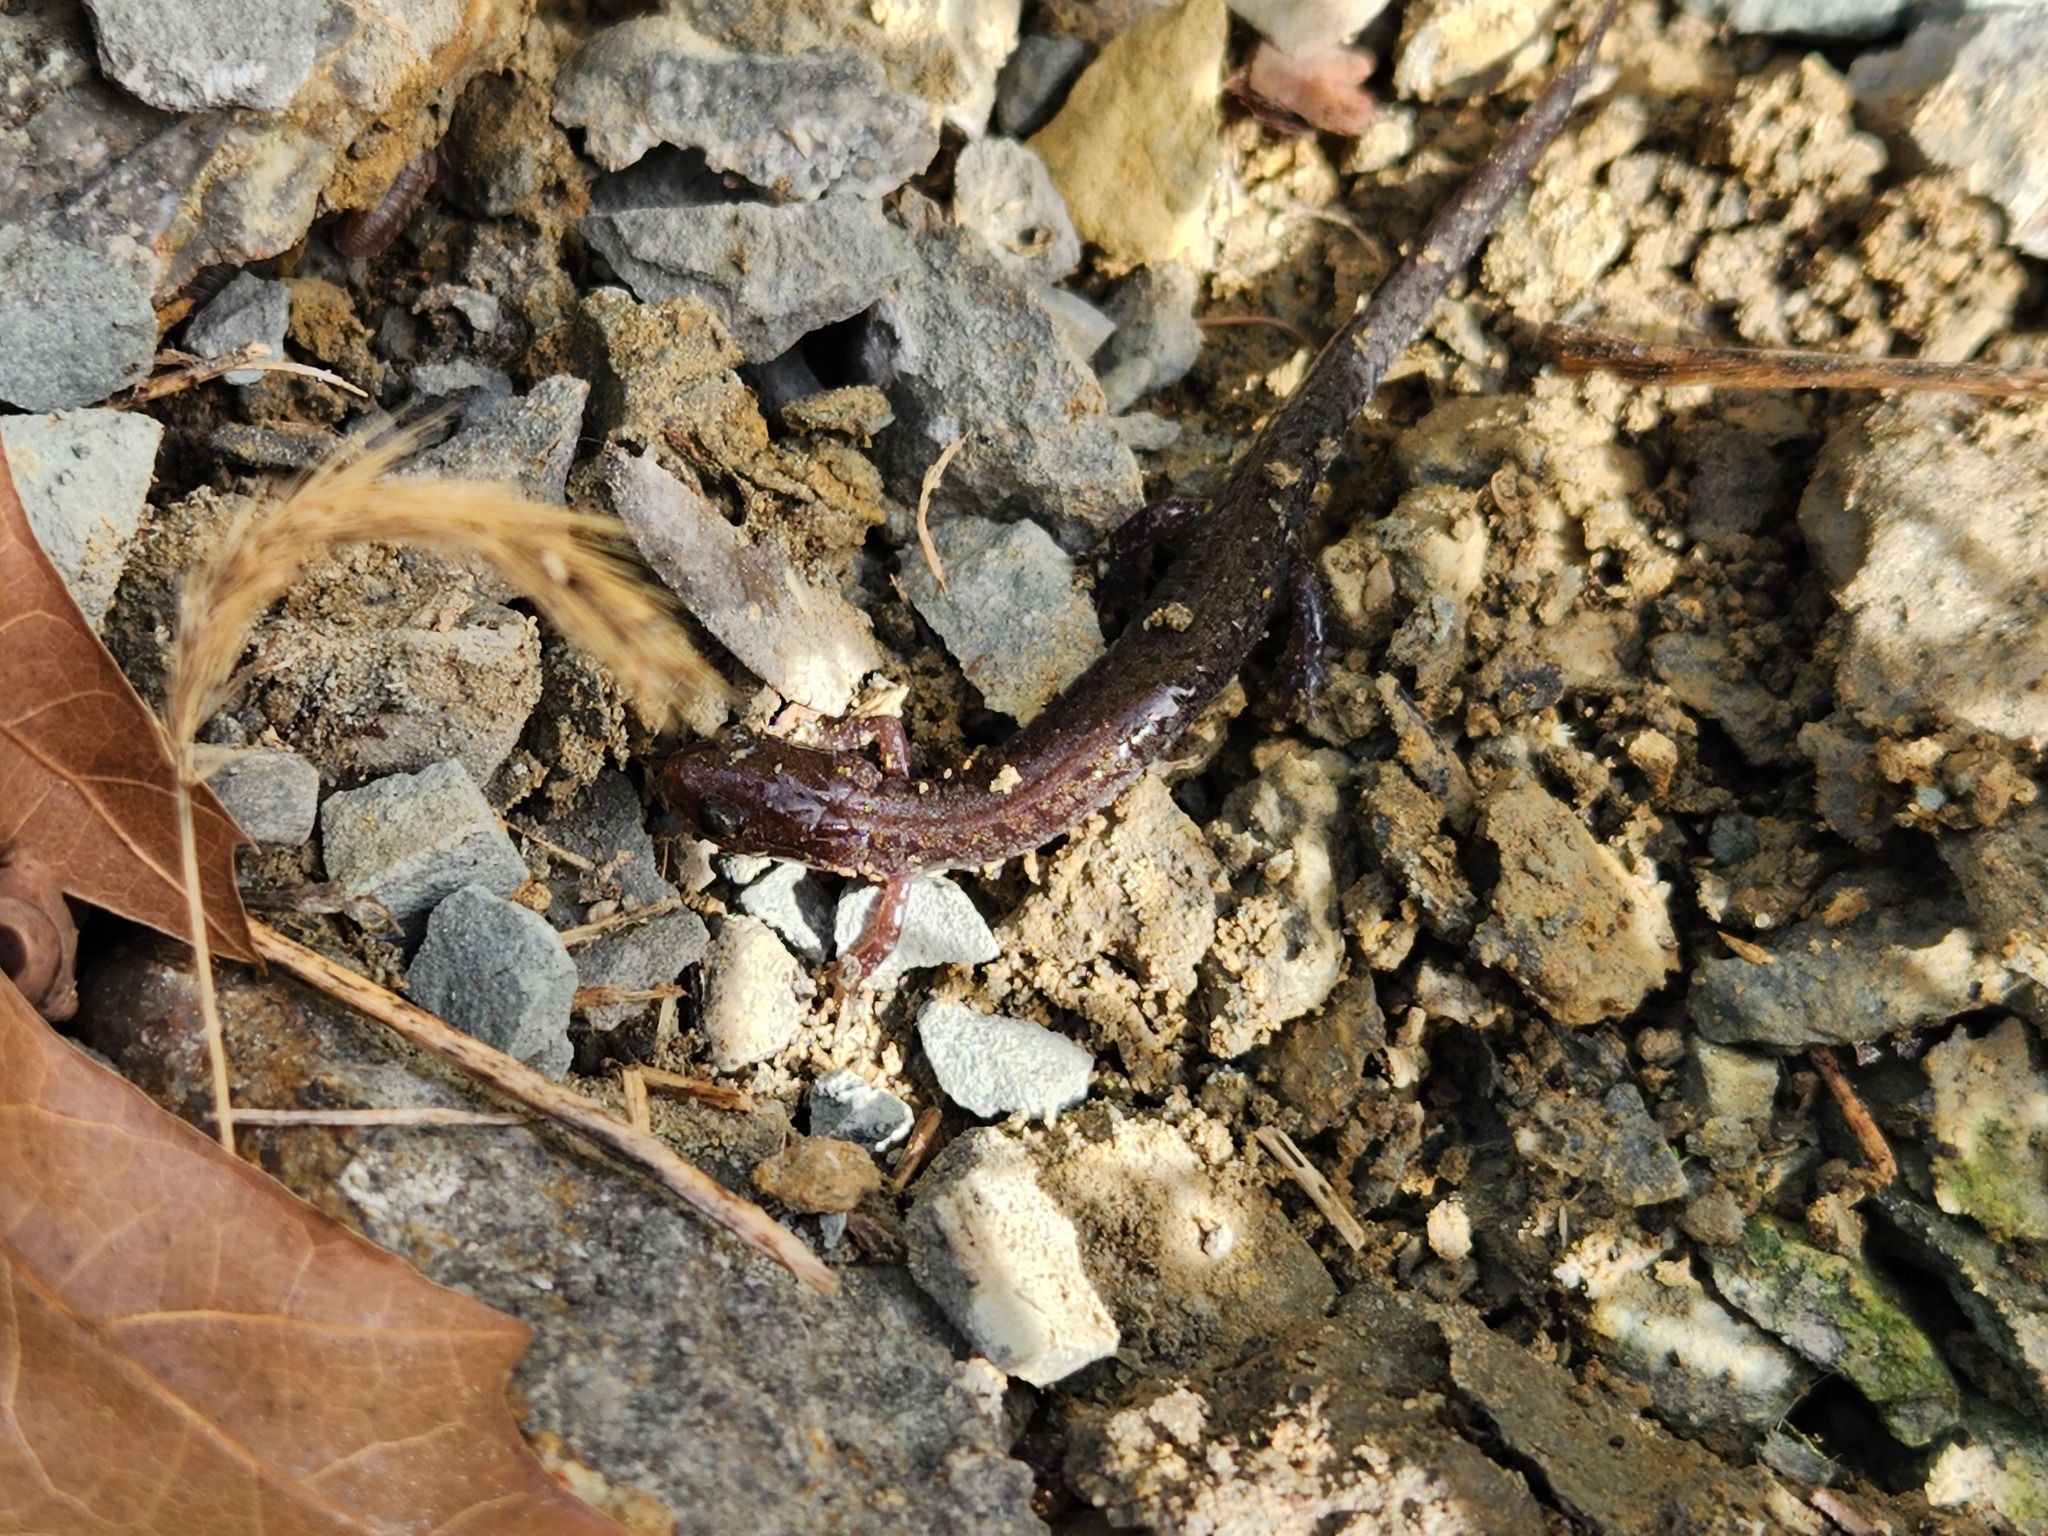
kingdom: Animalia
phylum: Chordata
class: Amphibia
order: Caudata
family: Plethodontidae
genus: Plethodon
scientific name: Plethodon dorsalis
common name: Northern zigzag salamander
